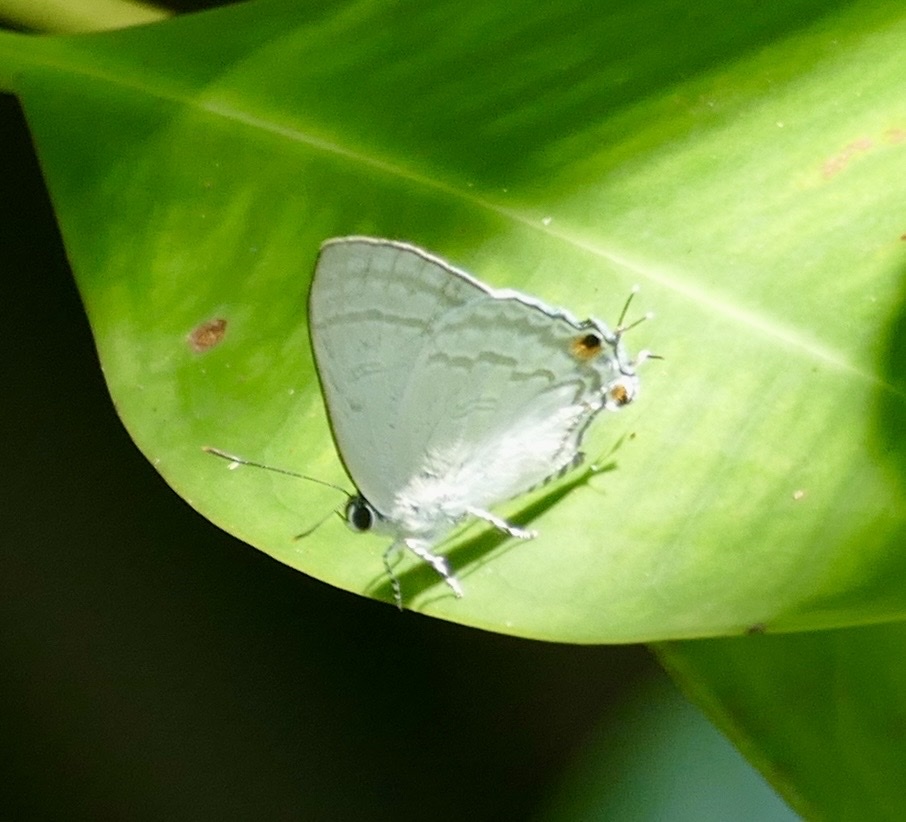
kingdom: Animalia
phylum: Arthropoda
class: Insecta
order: Lepidoptera
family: Lycaenidae
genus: Hypolycaena
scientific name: Hypolycaena phorbas
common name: Black-spotted flash
